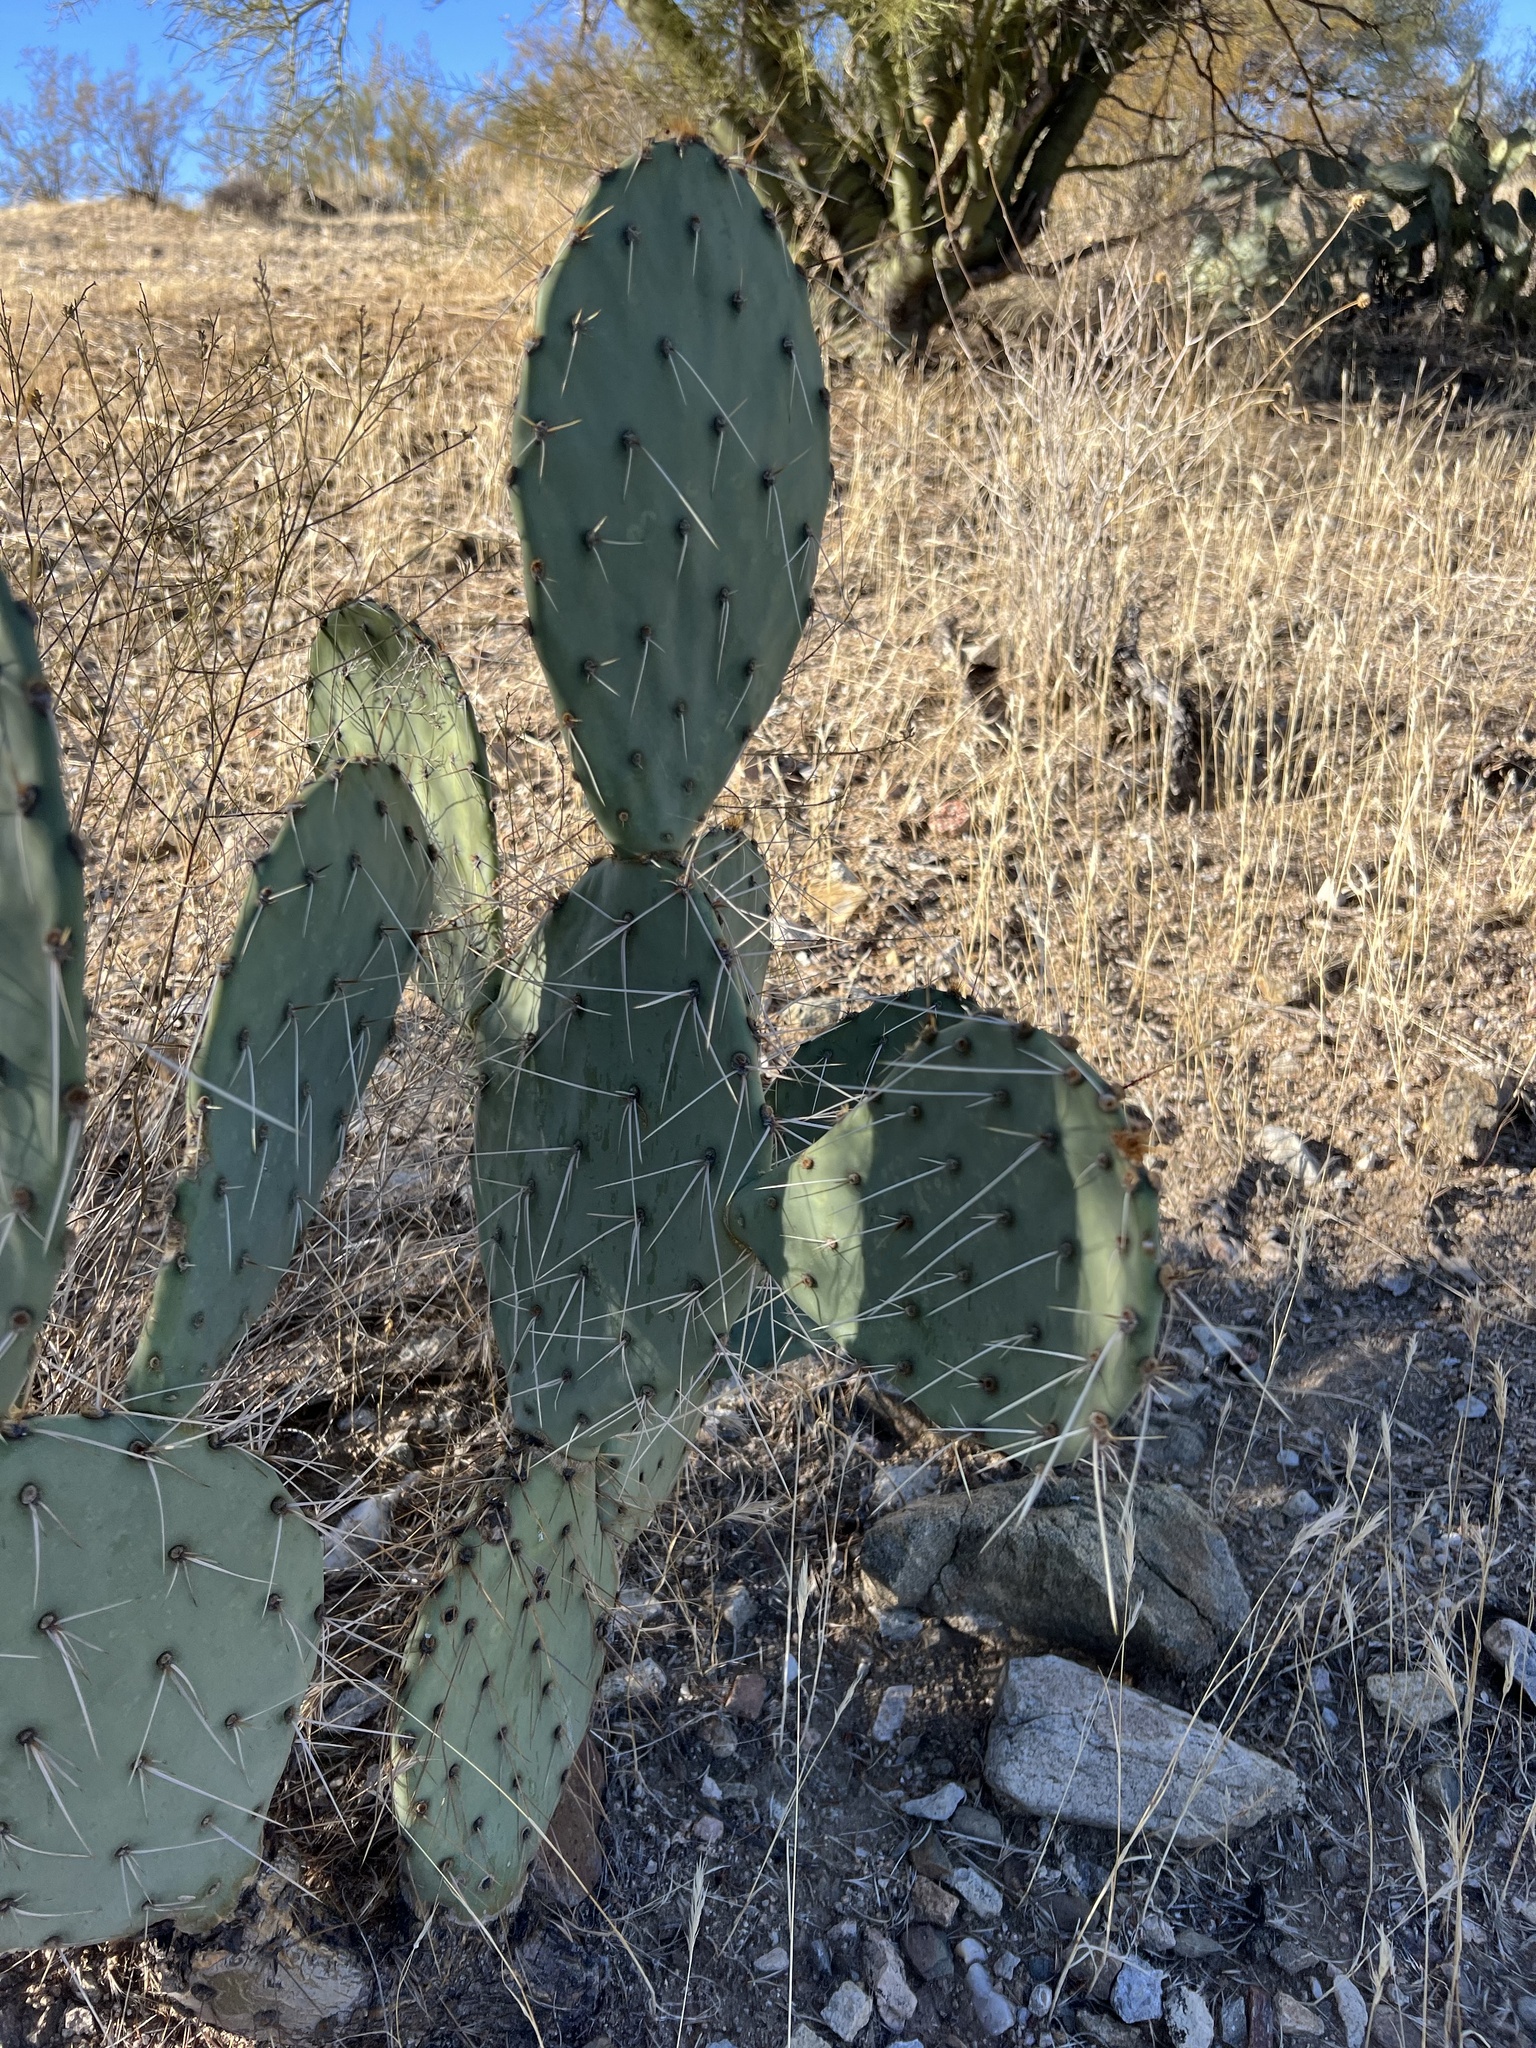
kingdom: Plantae
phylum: Tracheophyta
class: Magnoliopsida
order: Caryophyllales
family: Cactaceae
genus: Opuntia
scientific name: Opuntia engelmannii
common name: Cactus-apple
